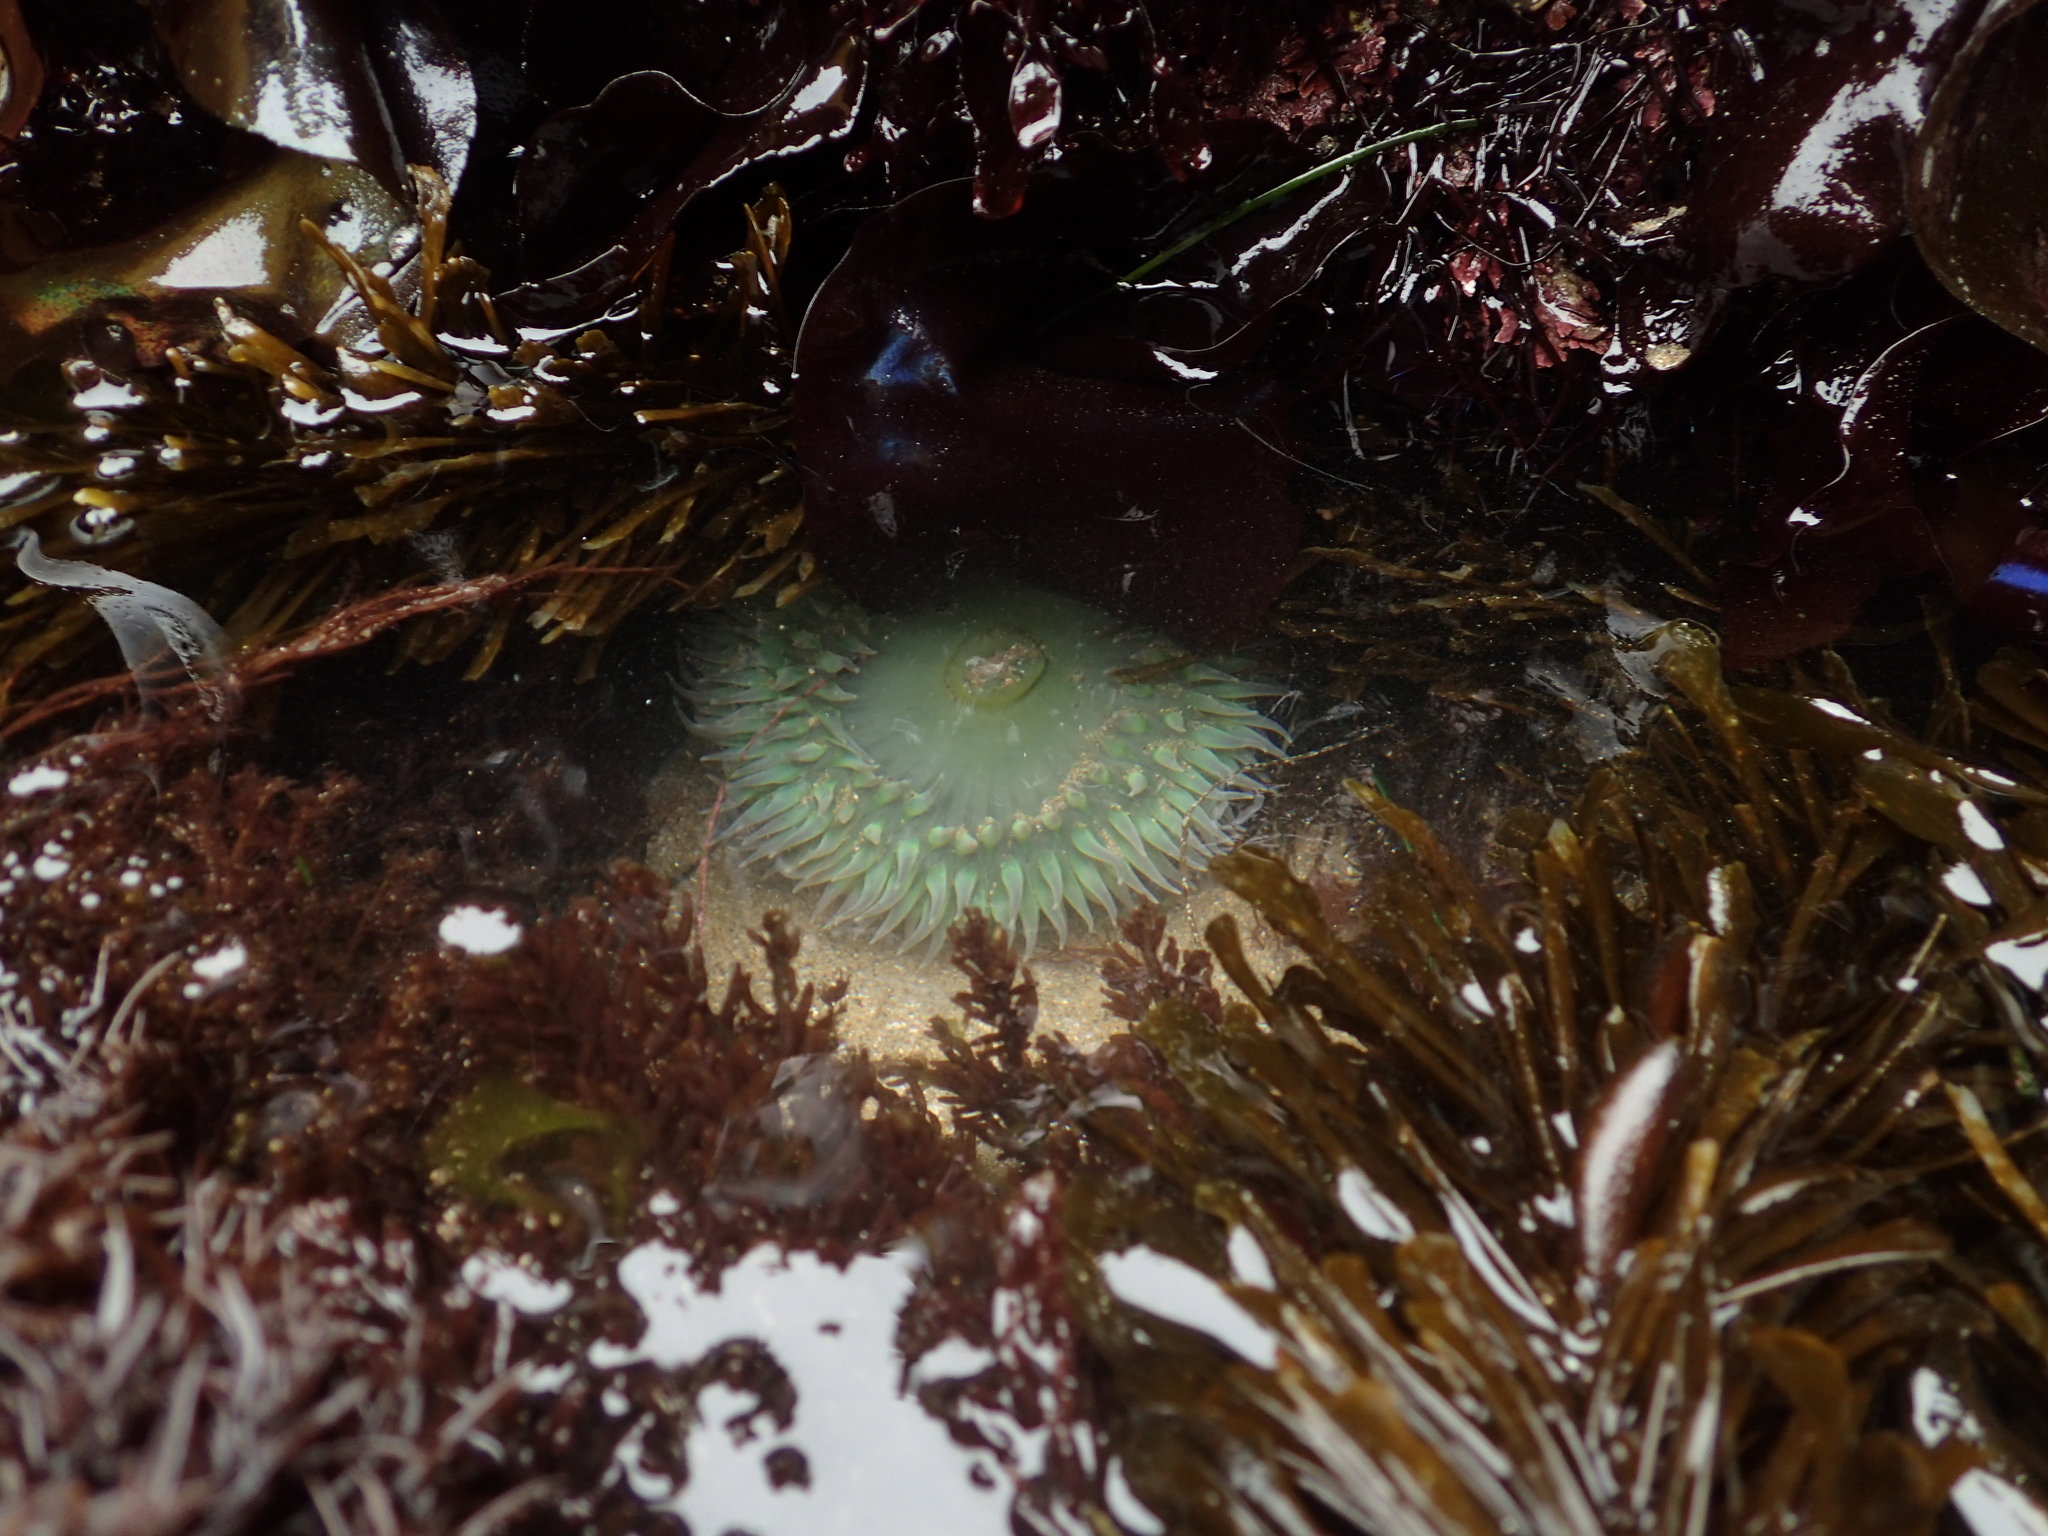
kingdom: Animalia
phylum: Cnidaria
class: Anthozoa
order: Actiniaria
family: Actiniidae
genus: Anthopleura
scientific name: Anthopleura xanthogrammica
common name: Giant green anemone
